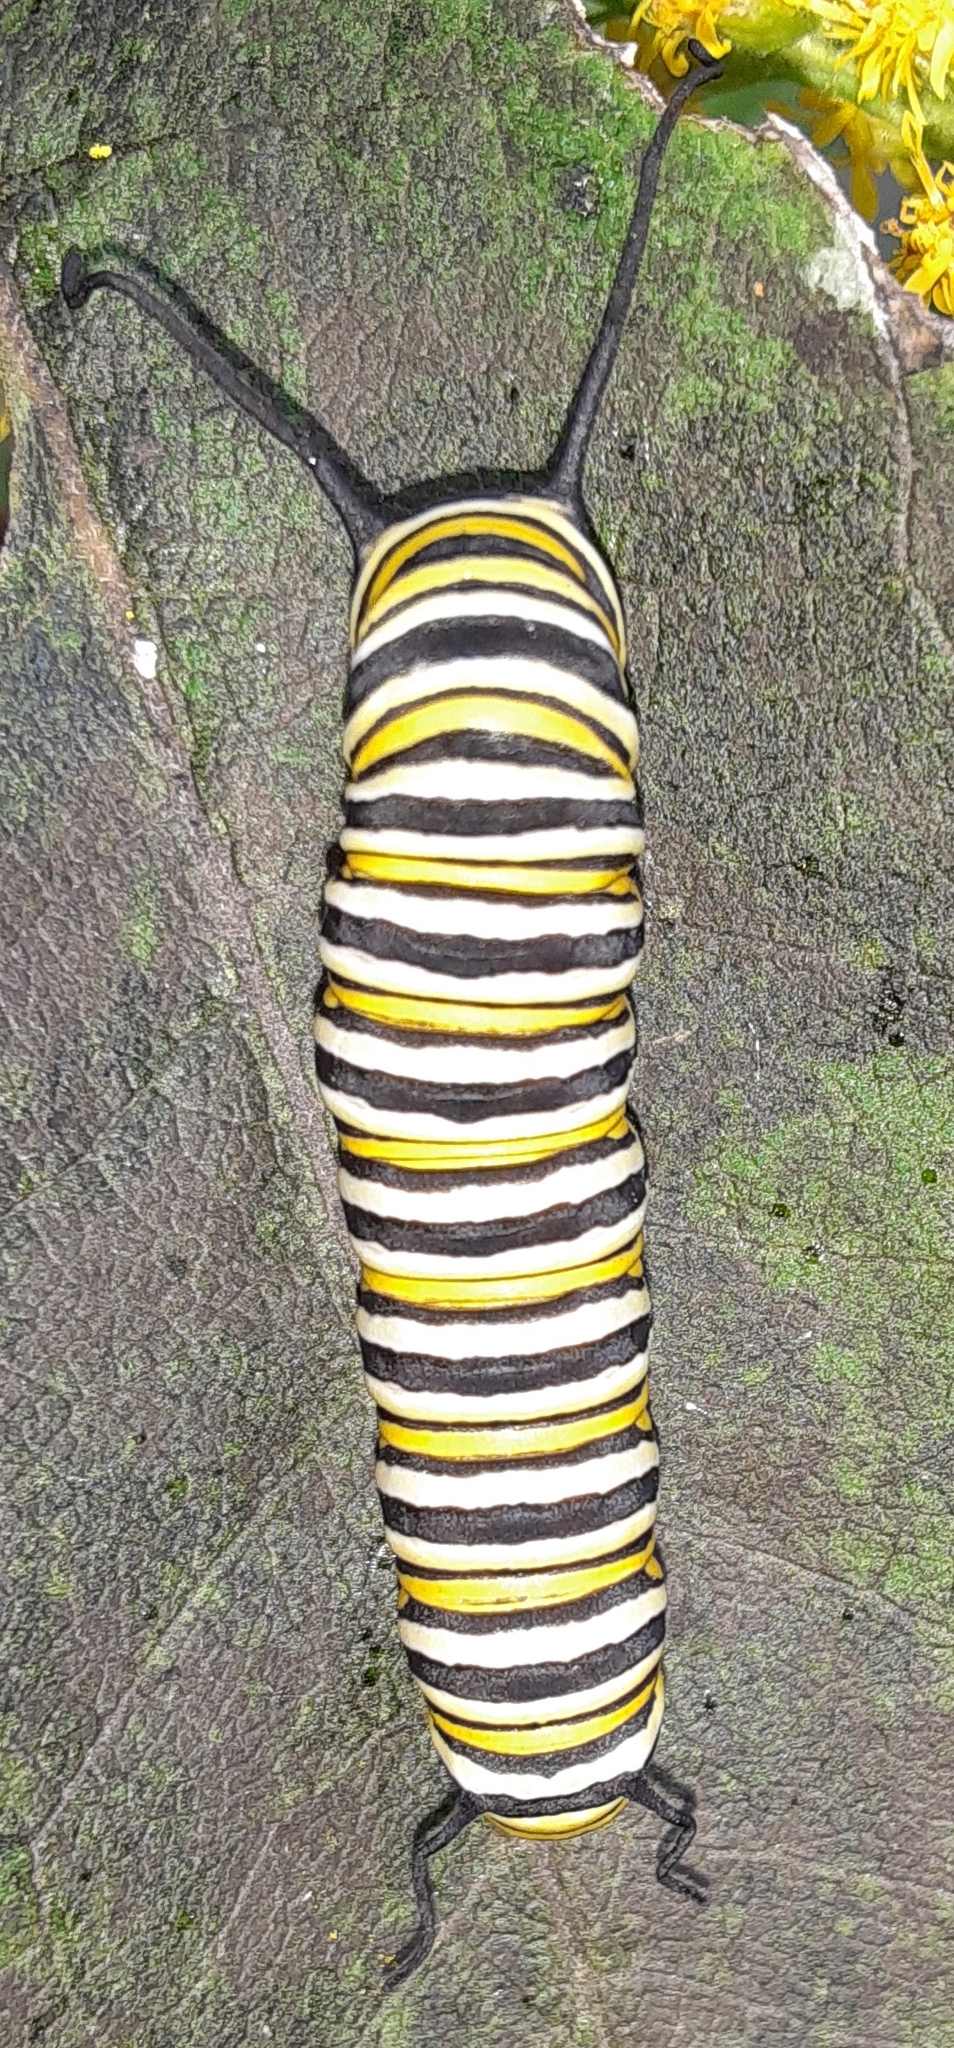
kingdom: Animalia
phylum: Arthropoda
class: Insecta
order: Lepidoptera
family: Nymphalidae
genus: Danaus
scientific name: Danaus plexippus
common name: Monarch
